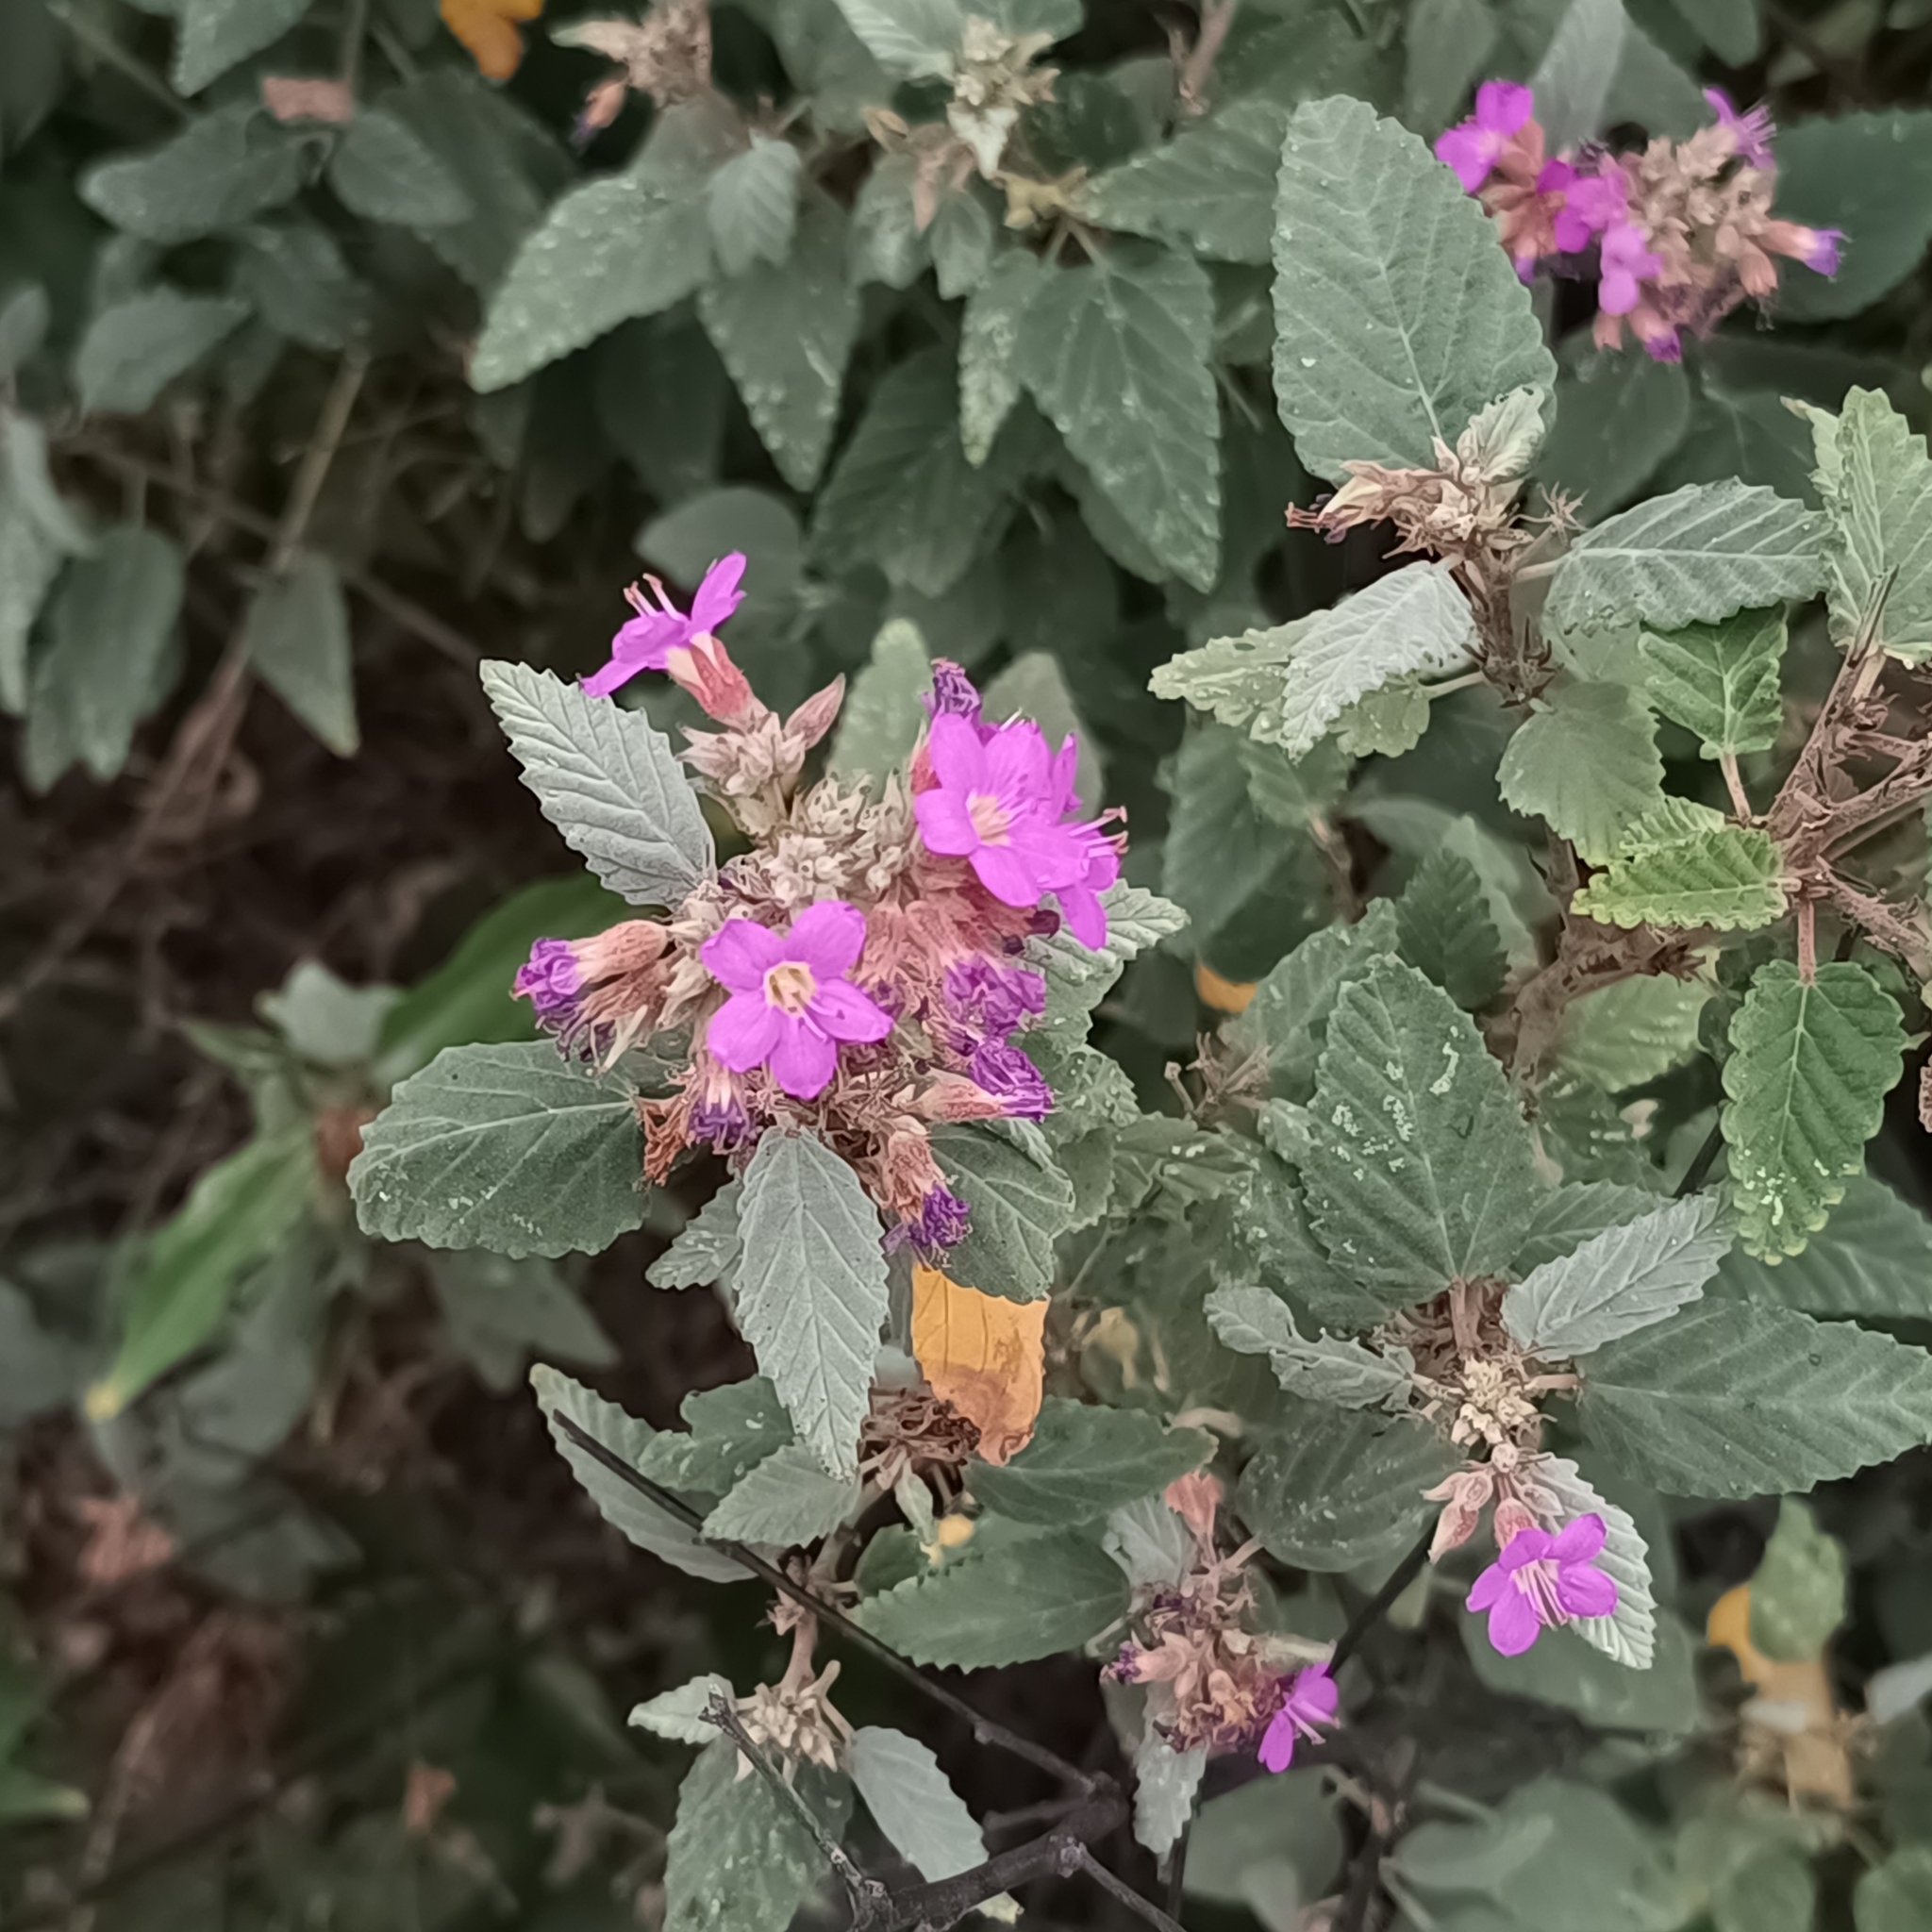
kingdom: Plantae
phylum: Tracheophyta
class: Magnoliopsida
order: Malvales
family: Malvaceae
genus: Melochia
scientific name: Melochia tomentosa
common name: Black torch
